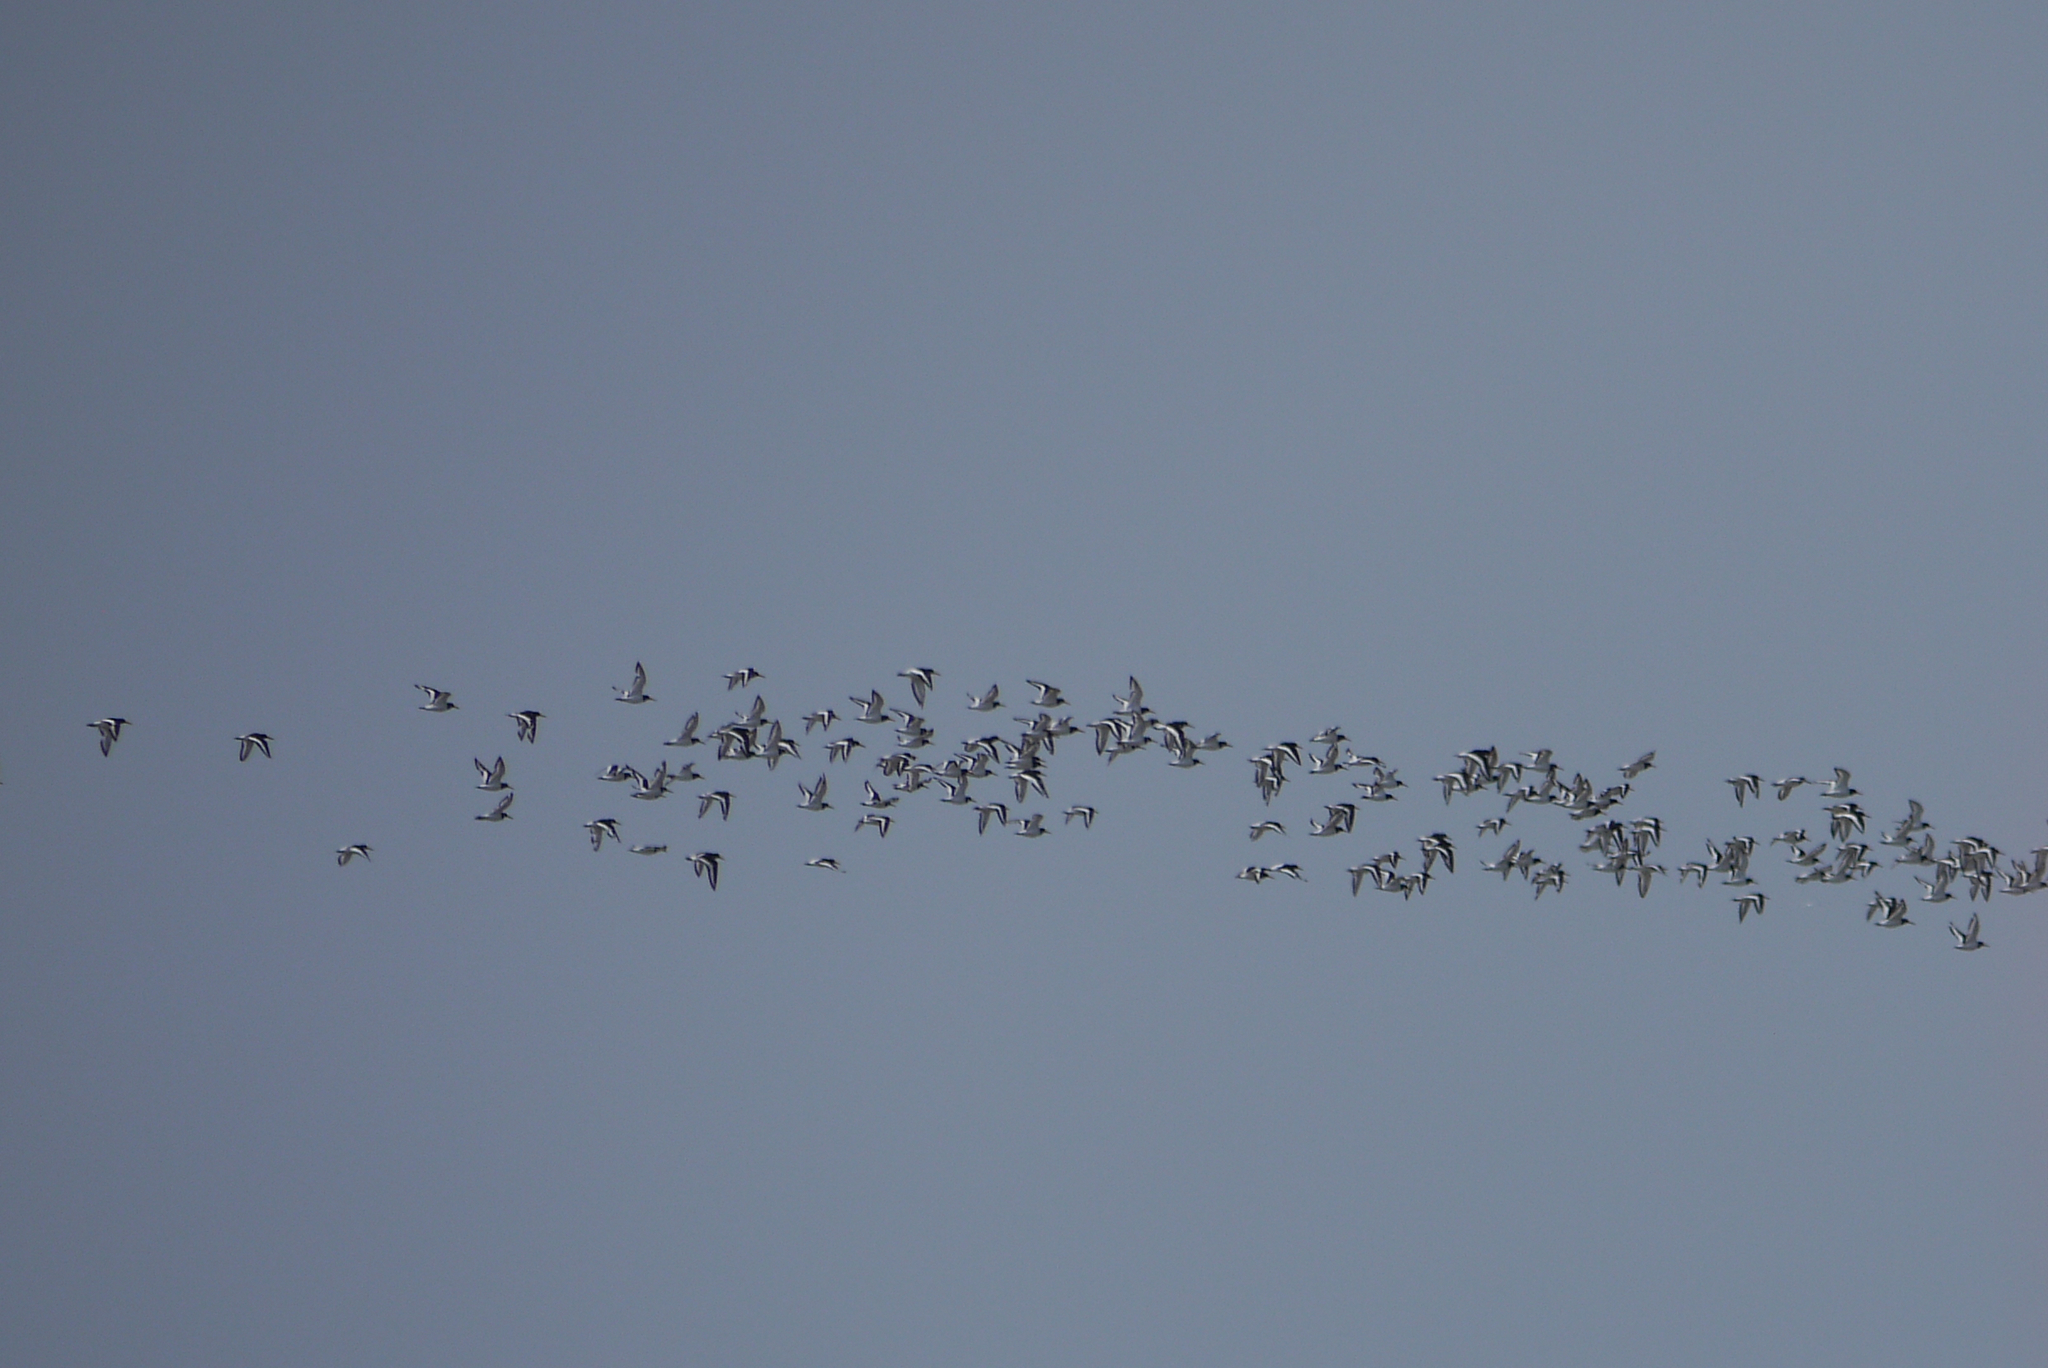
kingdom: Animalia
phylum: Chordata
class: Aves
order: Charadriiformes
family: Haematopodidae
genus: Haematopus
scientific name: Haematopus ostralegus
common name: Eurasian oystercatcher
